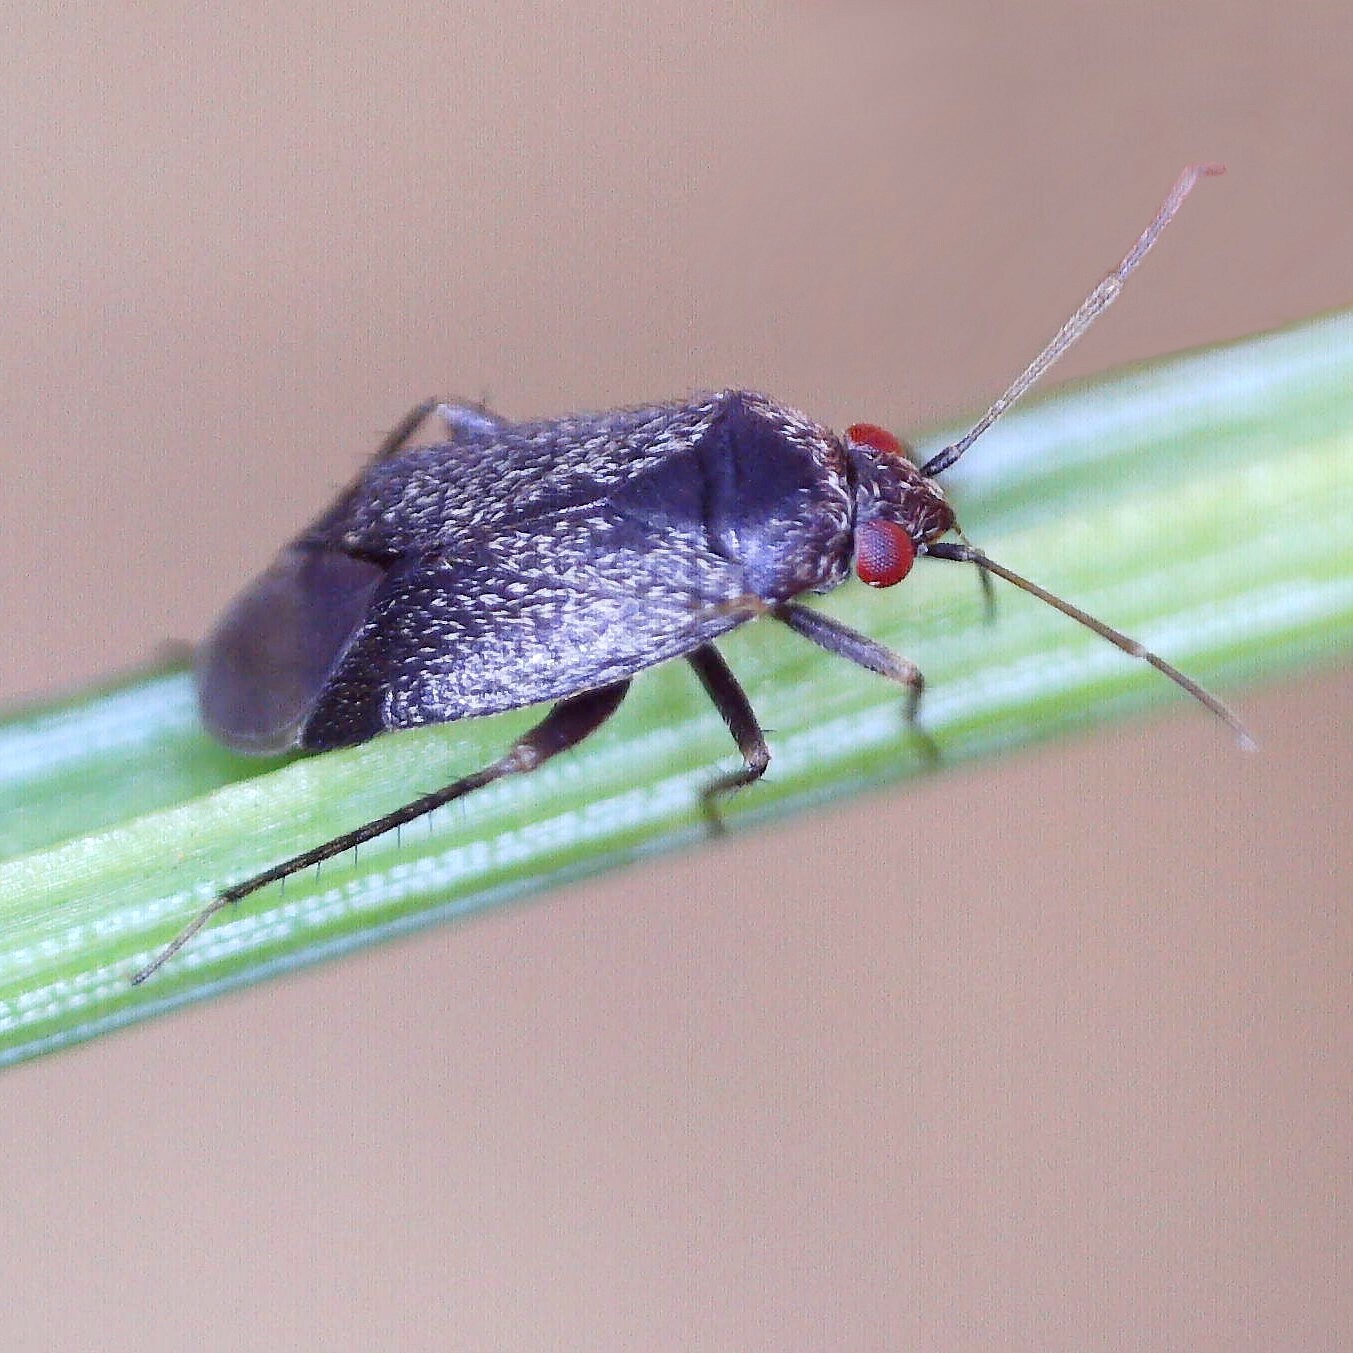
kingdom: Animalia
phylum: Arthropoda
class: Insecta
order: Hemiptera
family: Miridae
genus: Phoenicocoris
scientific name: Phoenicocoris obscurellus
